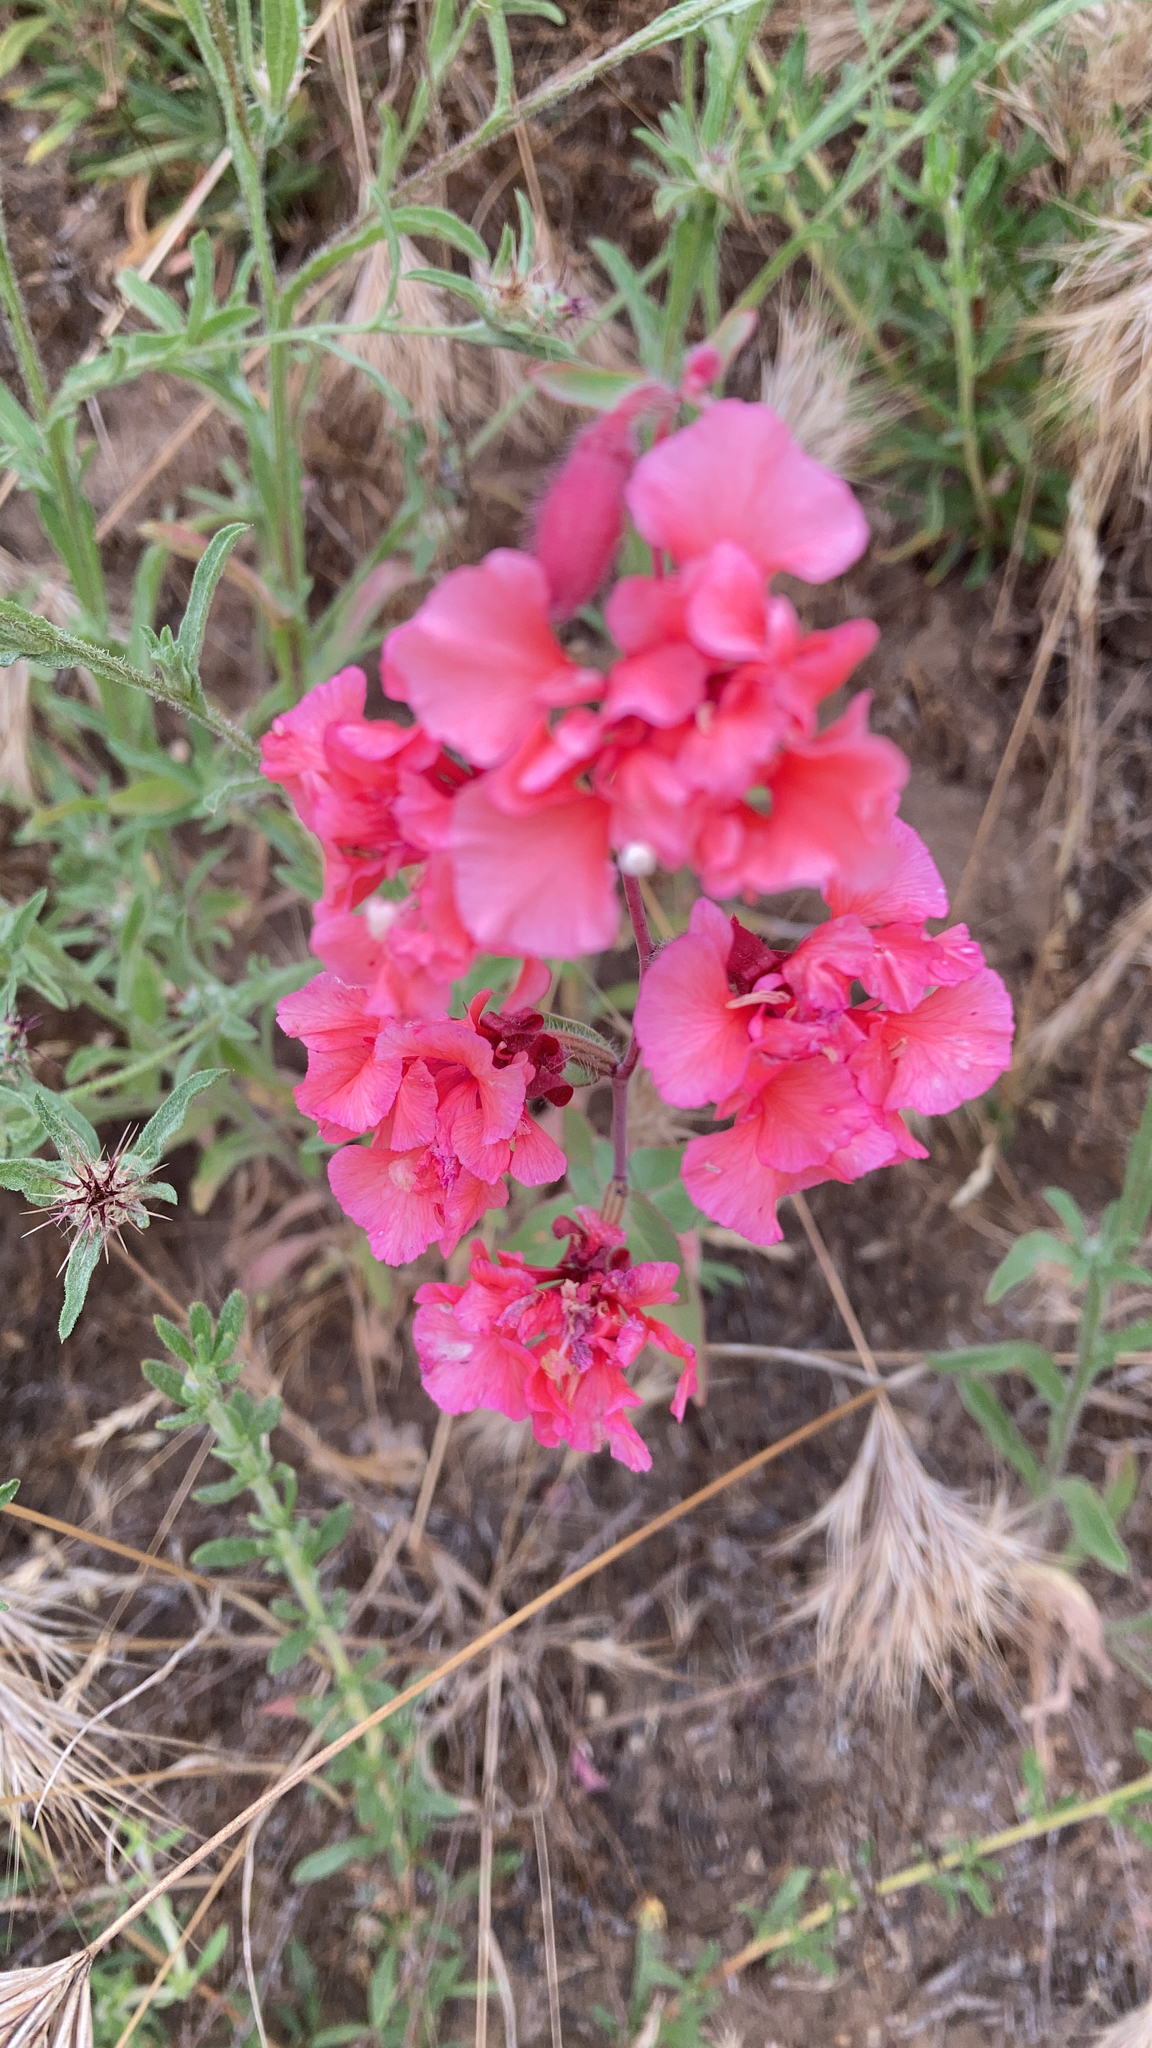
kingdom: Plantae
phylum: Tracheophyta
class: Magnoliopsida
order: Myrtales
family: Onagraceae
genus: Clarkia
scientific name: Clarkia unguiculata
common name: Clarkia
